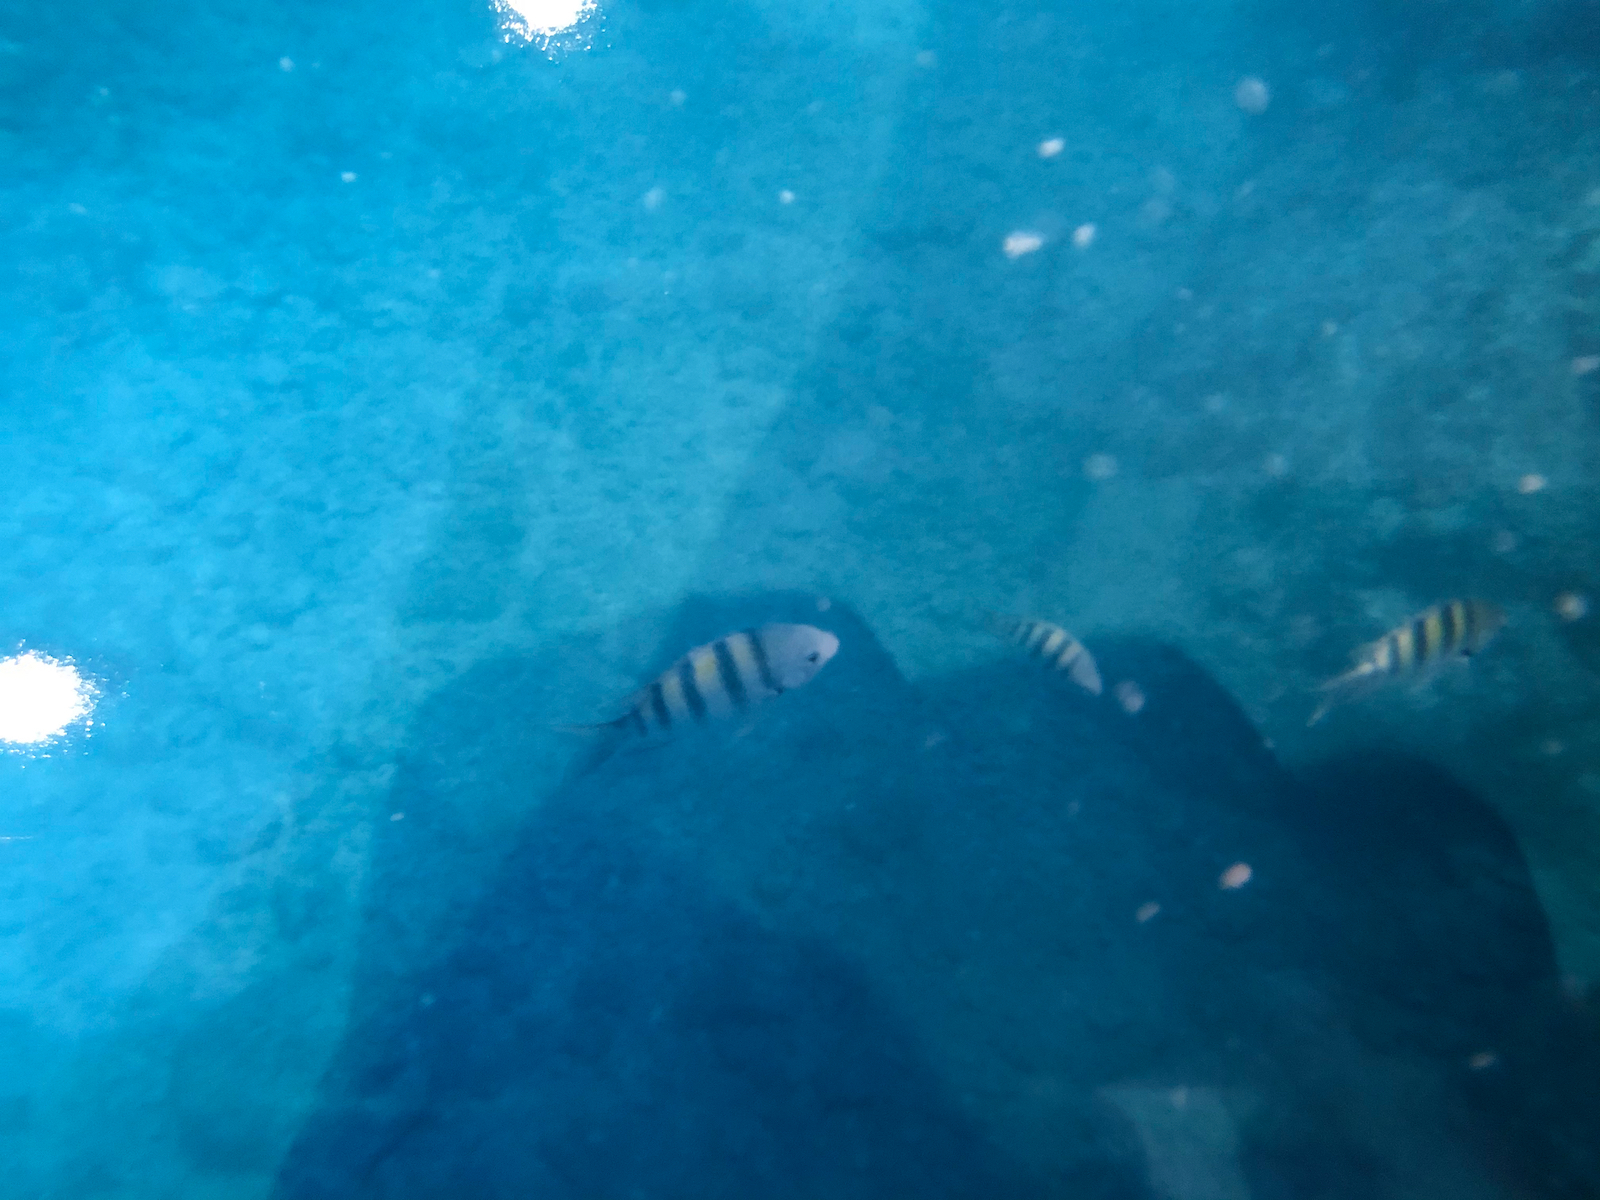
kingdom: Animalia
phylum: Chordata
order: Perciformes
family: Pomacentridae
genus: Abudefduf
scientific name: Abudefduf saxatilis
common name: Sergeant major
